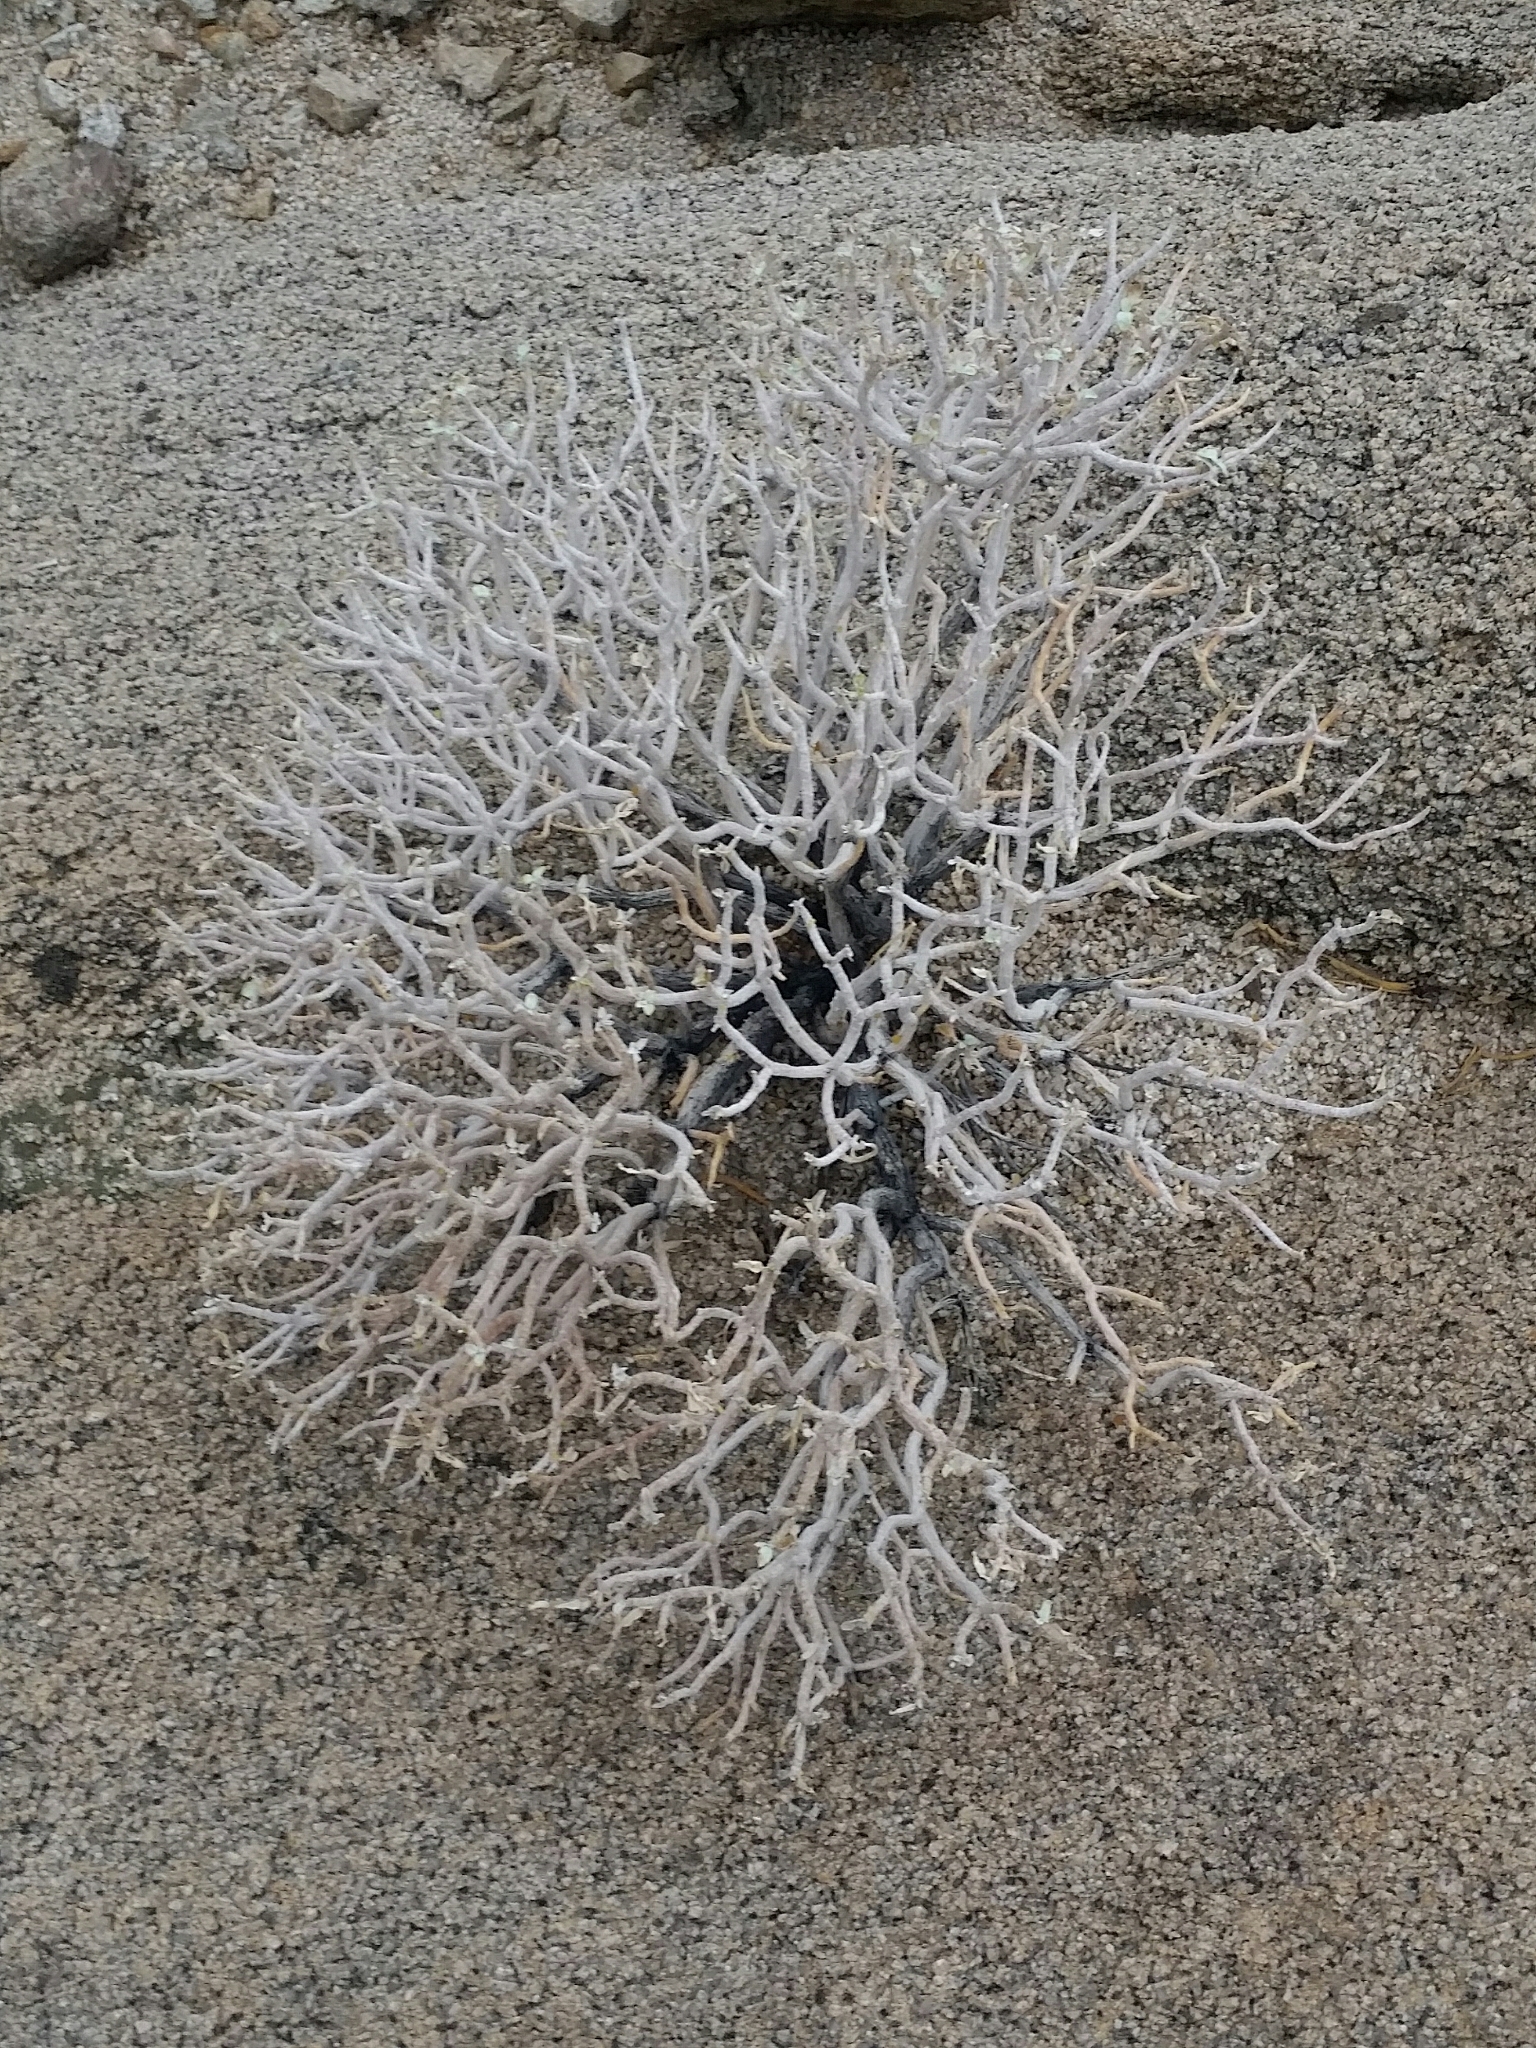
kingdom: Plantae
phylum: Tracheophyta
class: Magnoliopsida
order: Asterales
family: Asteraceae
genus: Encelia
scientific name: Encelia farinosa
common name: Brittlebush
